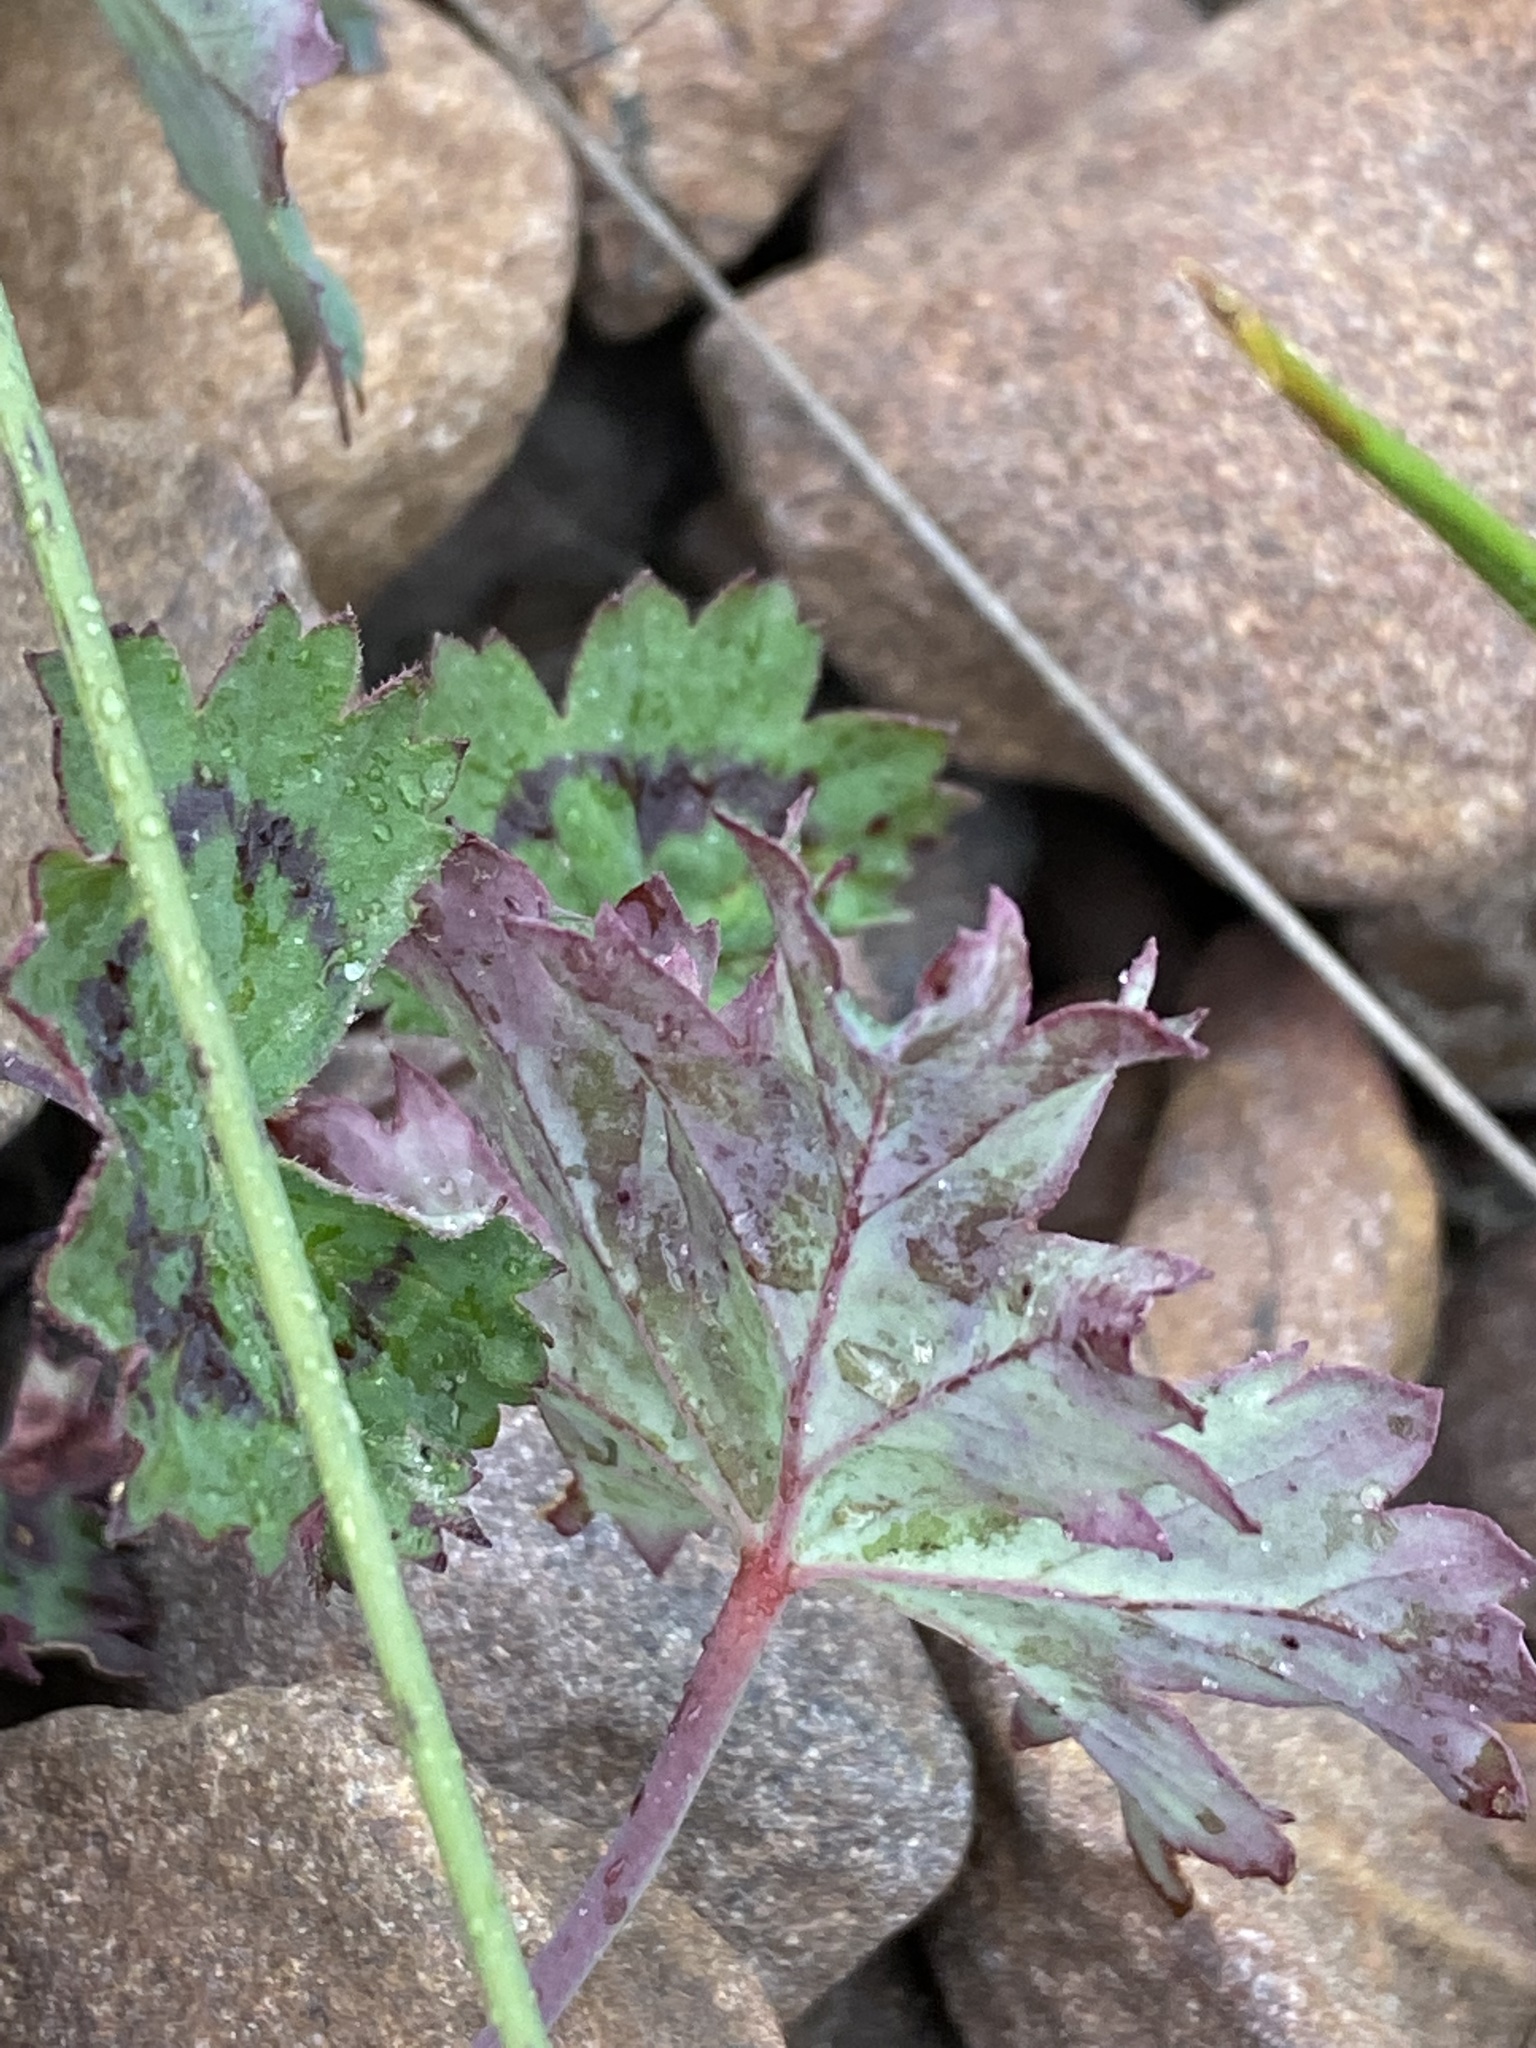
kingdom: Plantae
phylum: Tracheophyta
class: Magnoliopsida
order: Geraniales
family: Geraniaceae
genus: Pelargonium
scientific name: Pelargonium patulum
